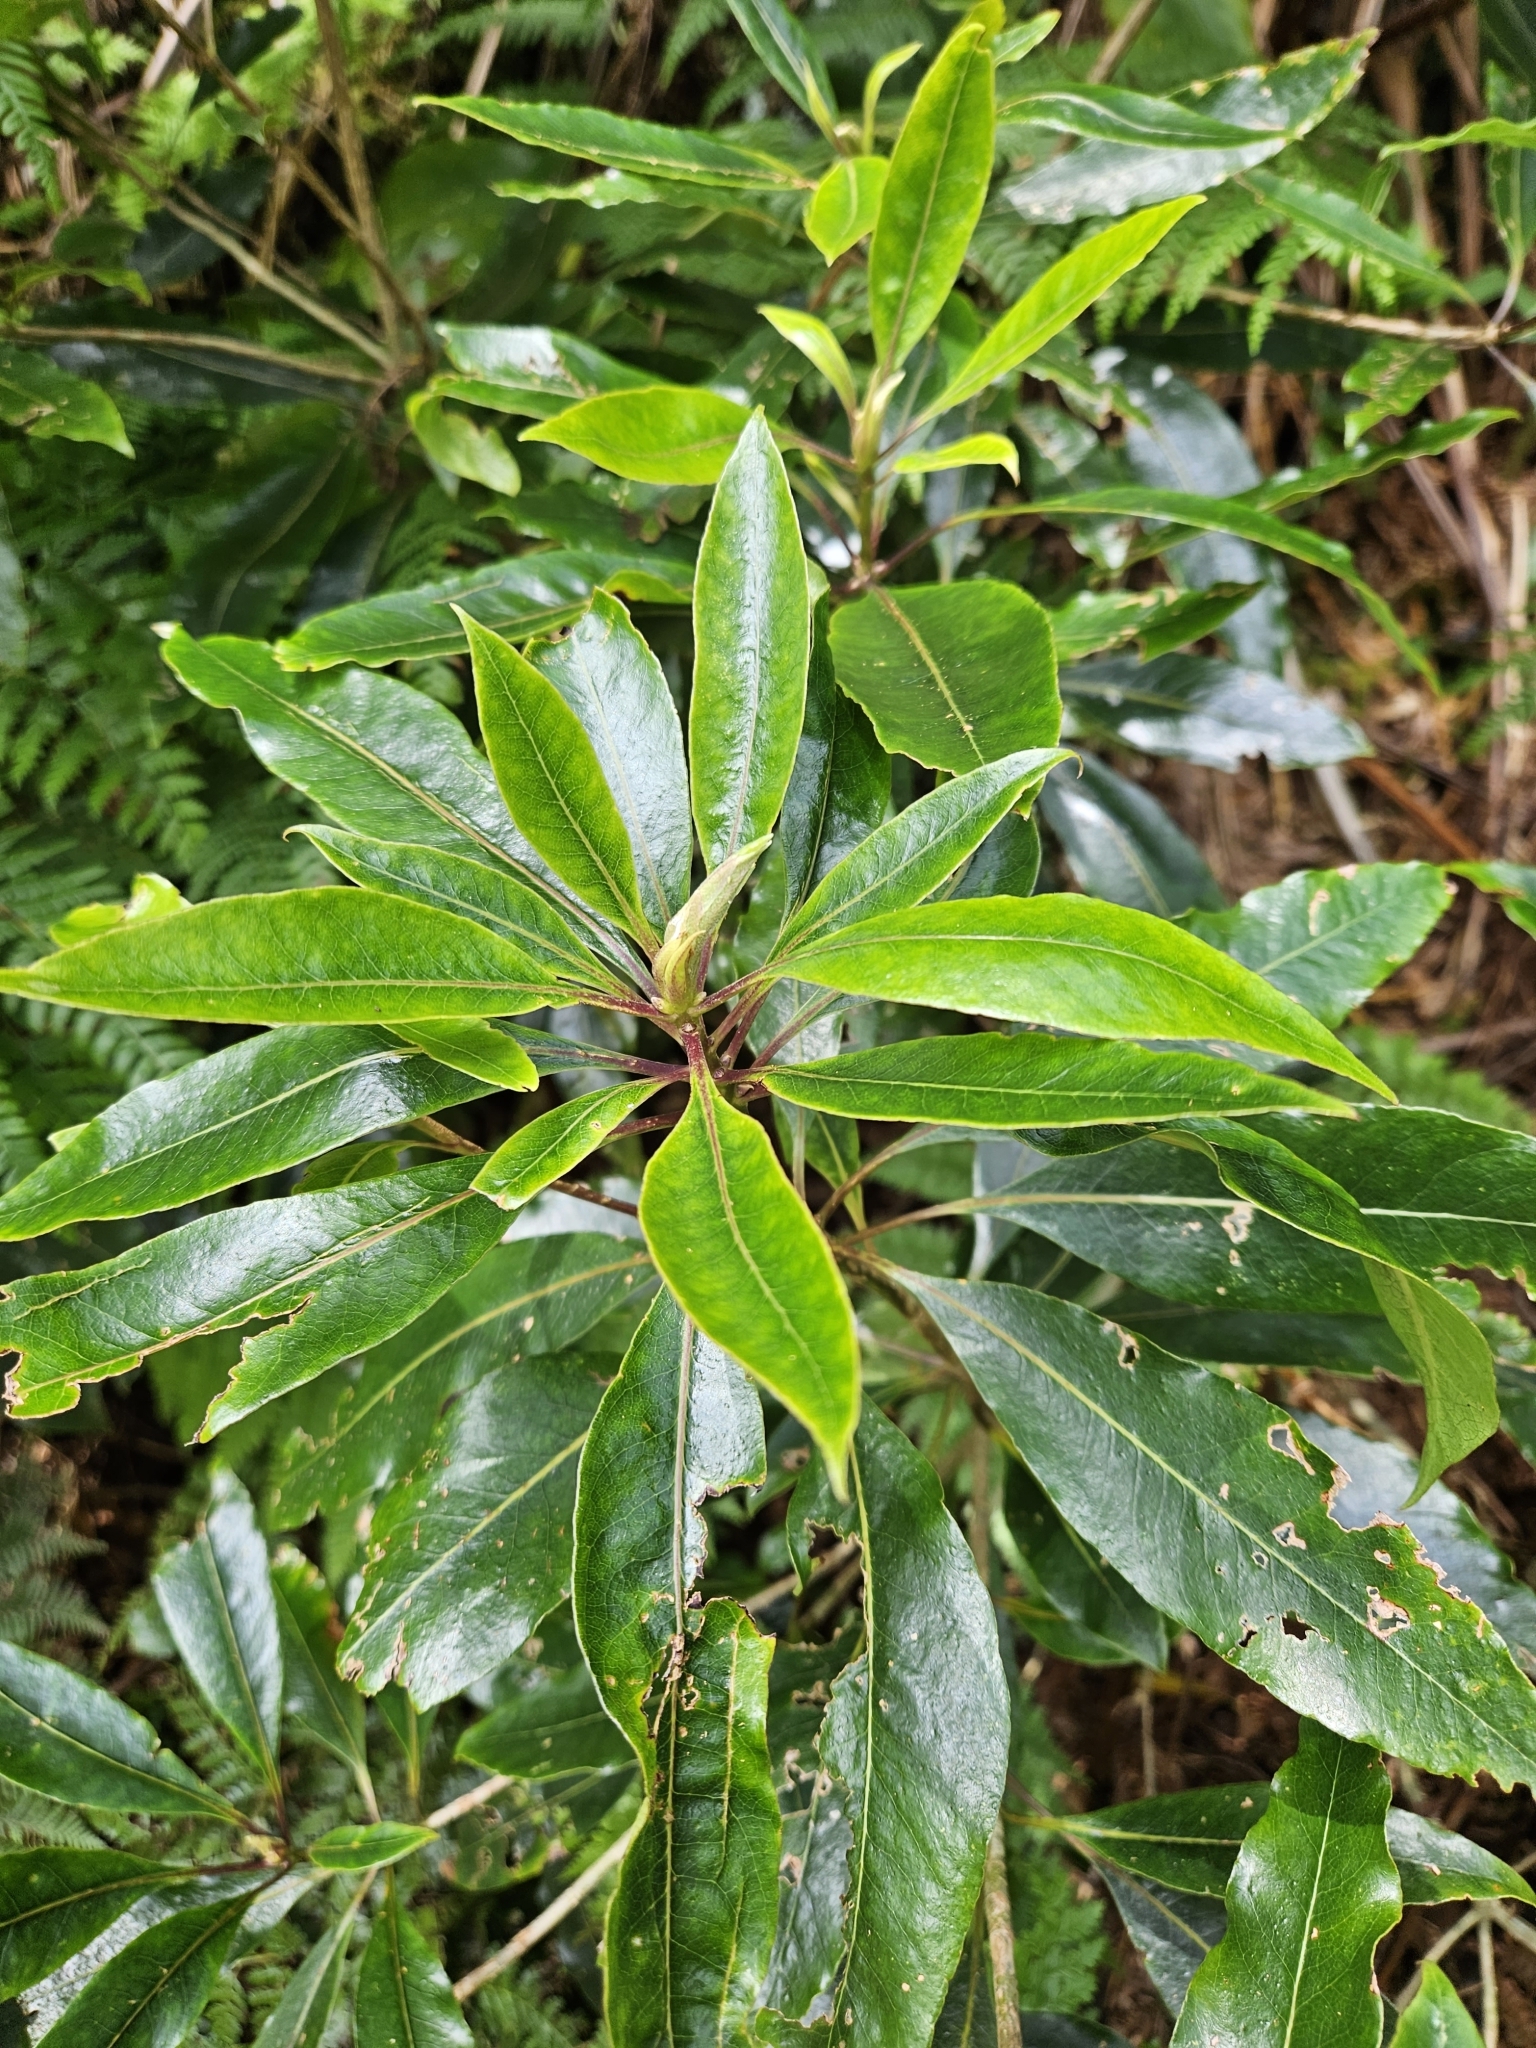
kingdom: Plantae
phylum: Tracheophyta
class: Magnoliopsida
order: Apiales
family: Pittosporaceae
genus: Pittosporum
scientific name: Pittosporum undulatum
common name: Australian cheesewood
